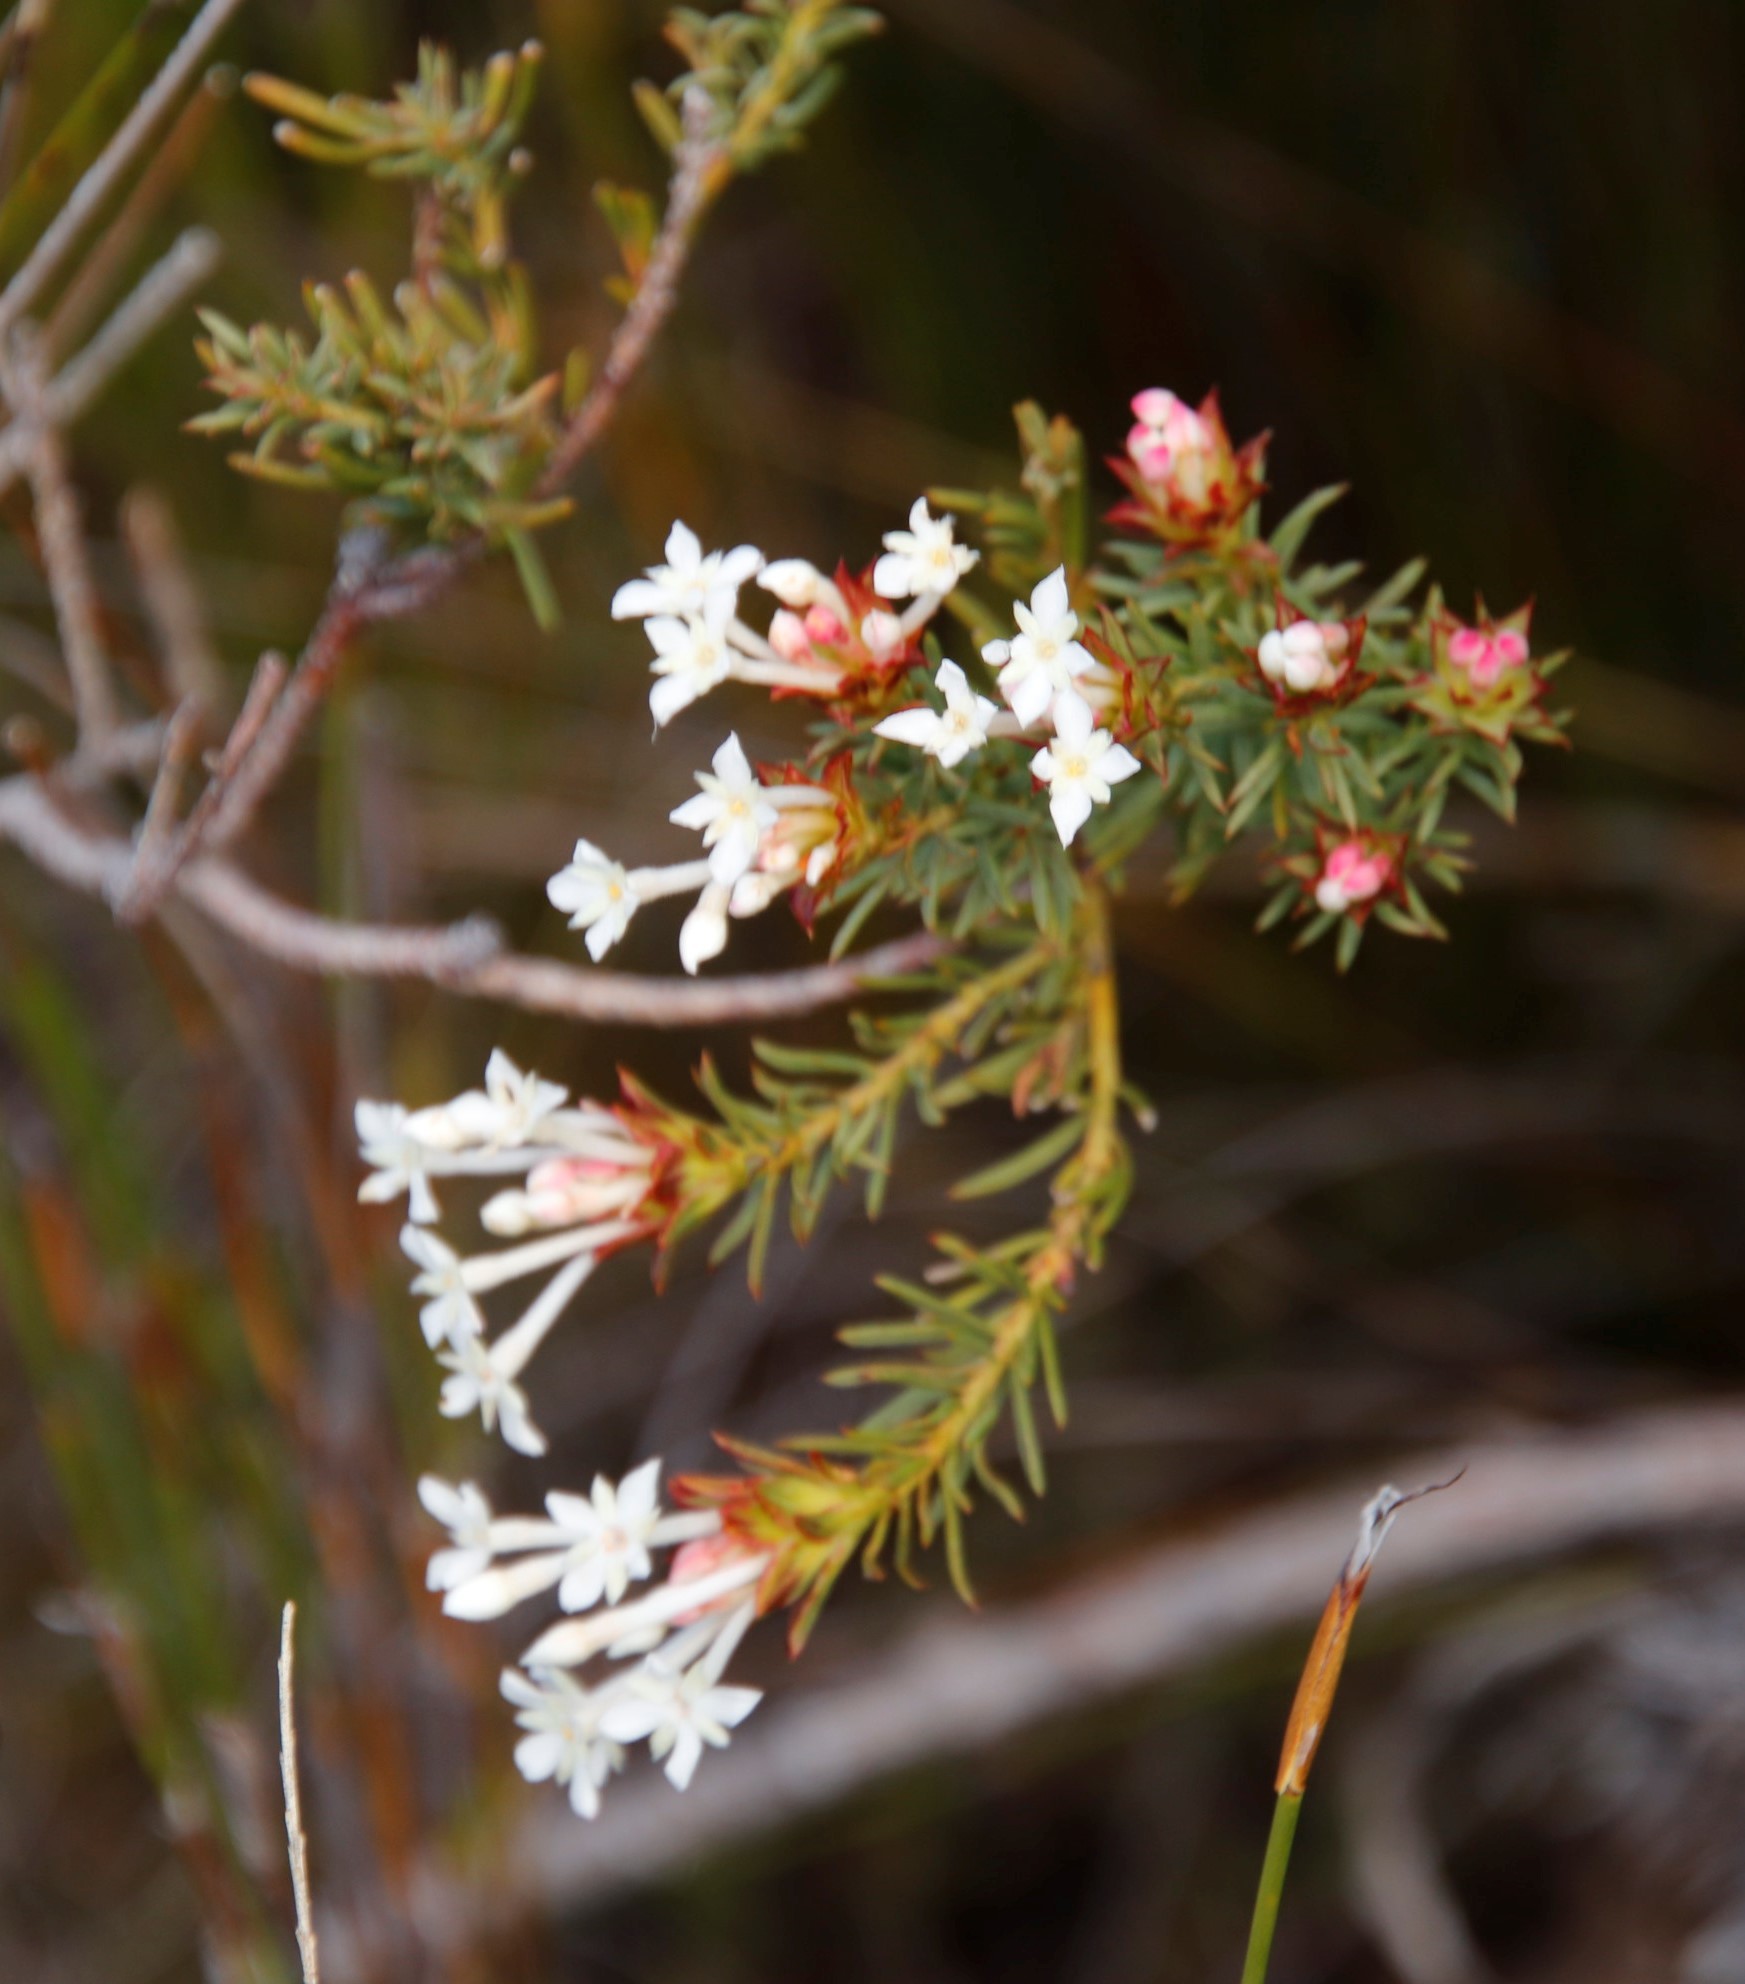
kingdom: Plantae
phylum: Tracheophyta
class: Magnoliopsida
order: Malvales
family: Thymelaeaceae
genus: Gnidia
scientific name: Gnidia pinifolia
